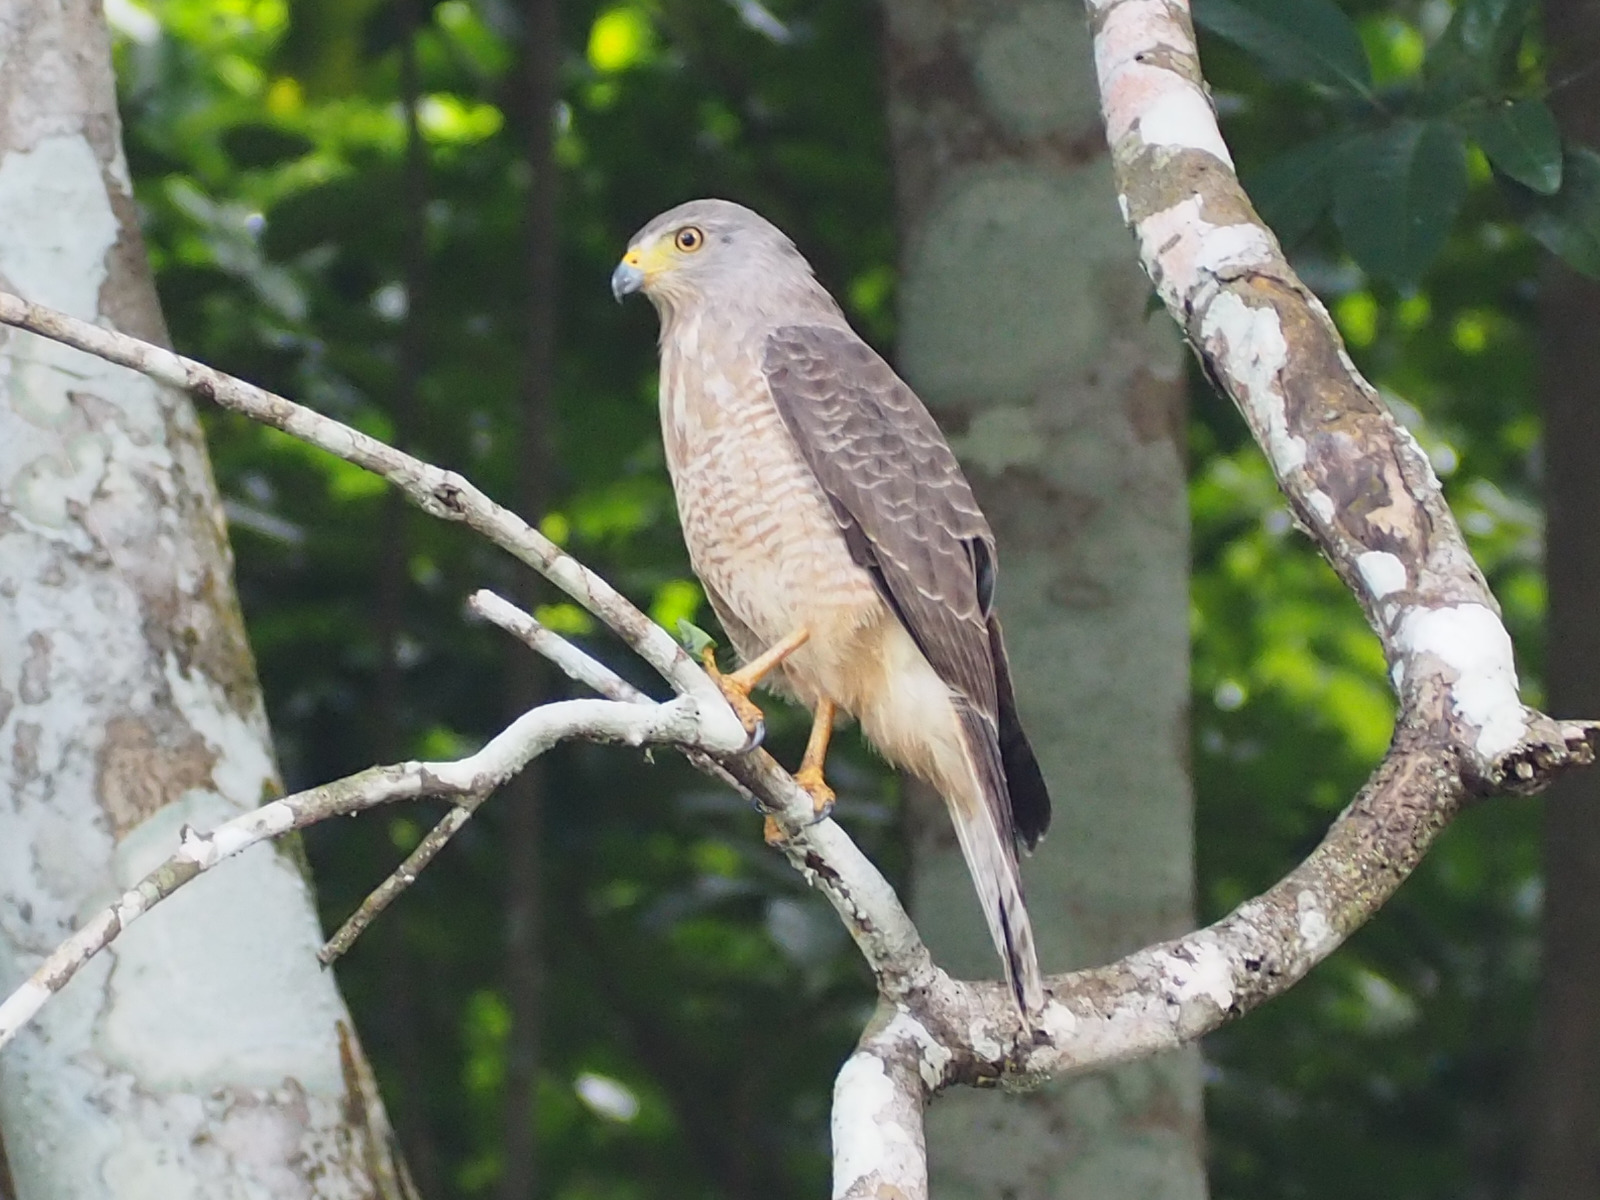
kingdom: Animalia
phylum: Chordata
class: Aves
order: Accipitriformes
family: Accipitridae
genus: Rupornis
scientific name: Rupornis magnirostris
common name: Roadside hawk
